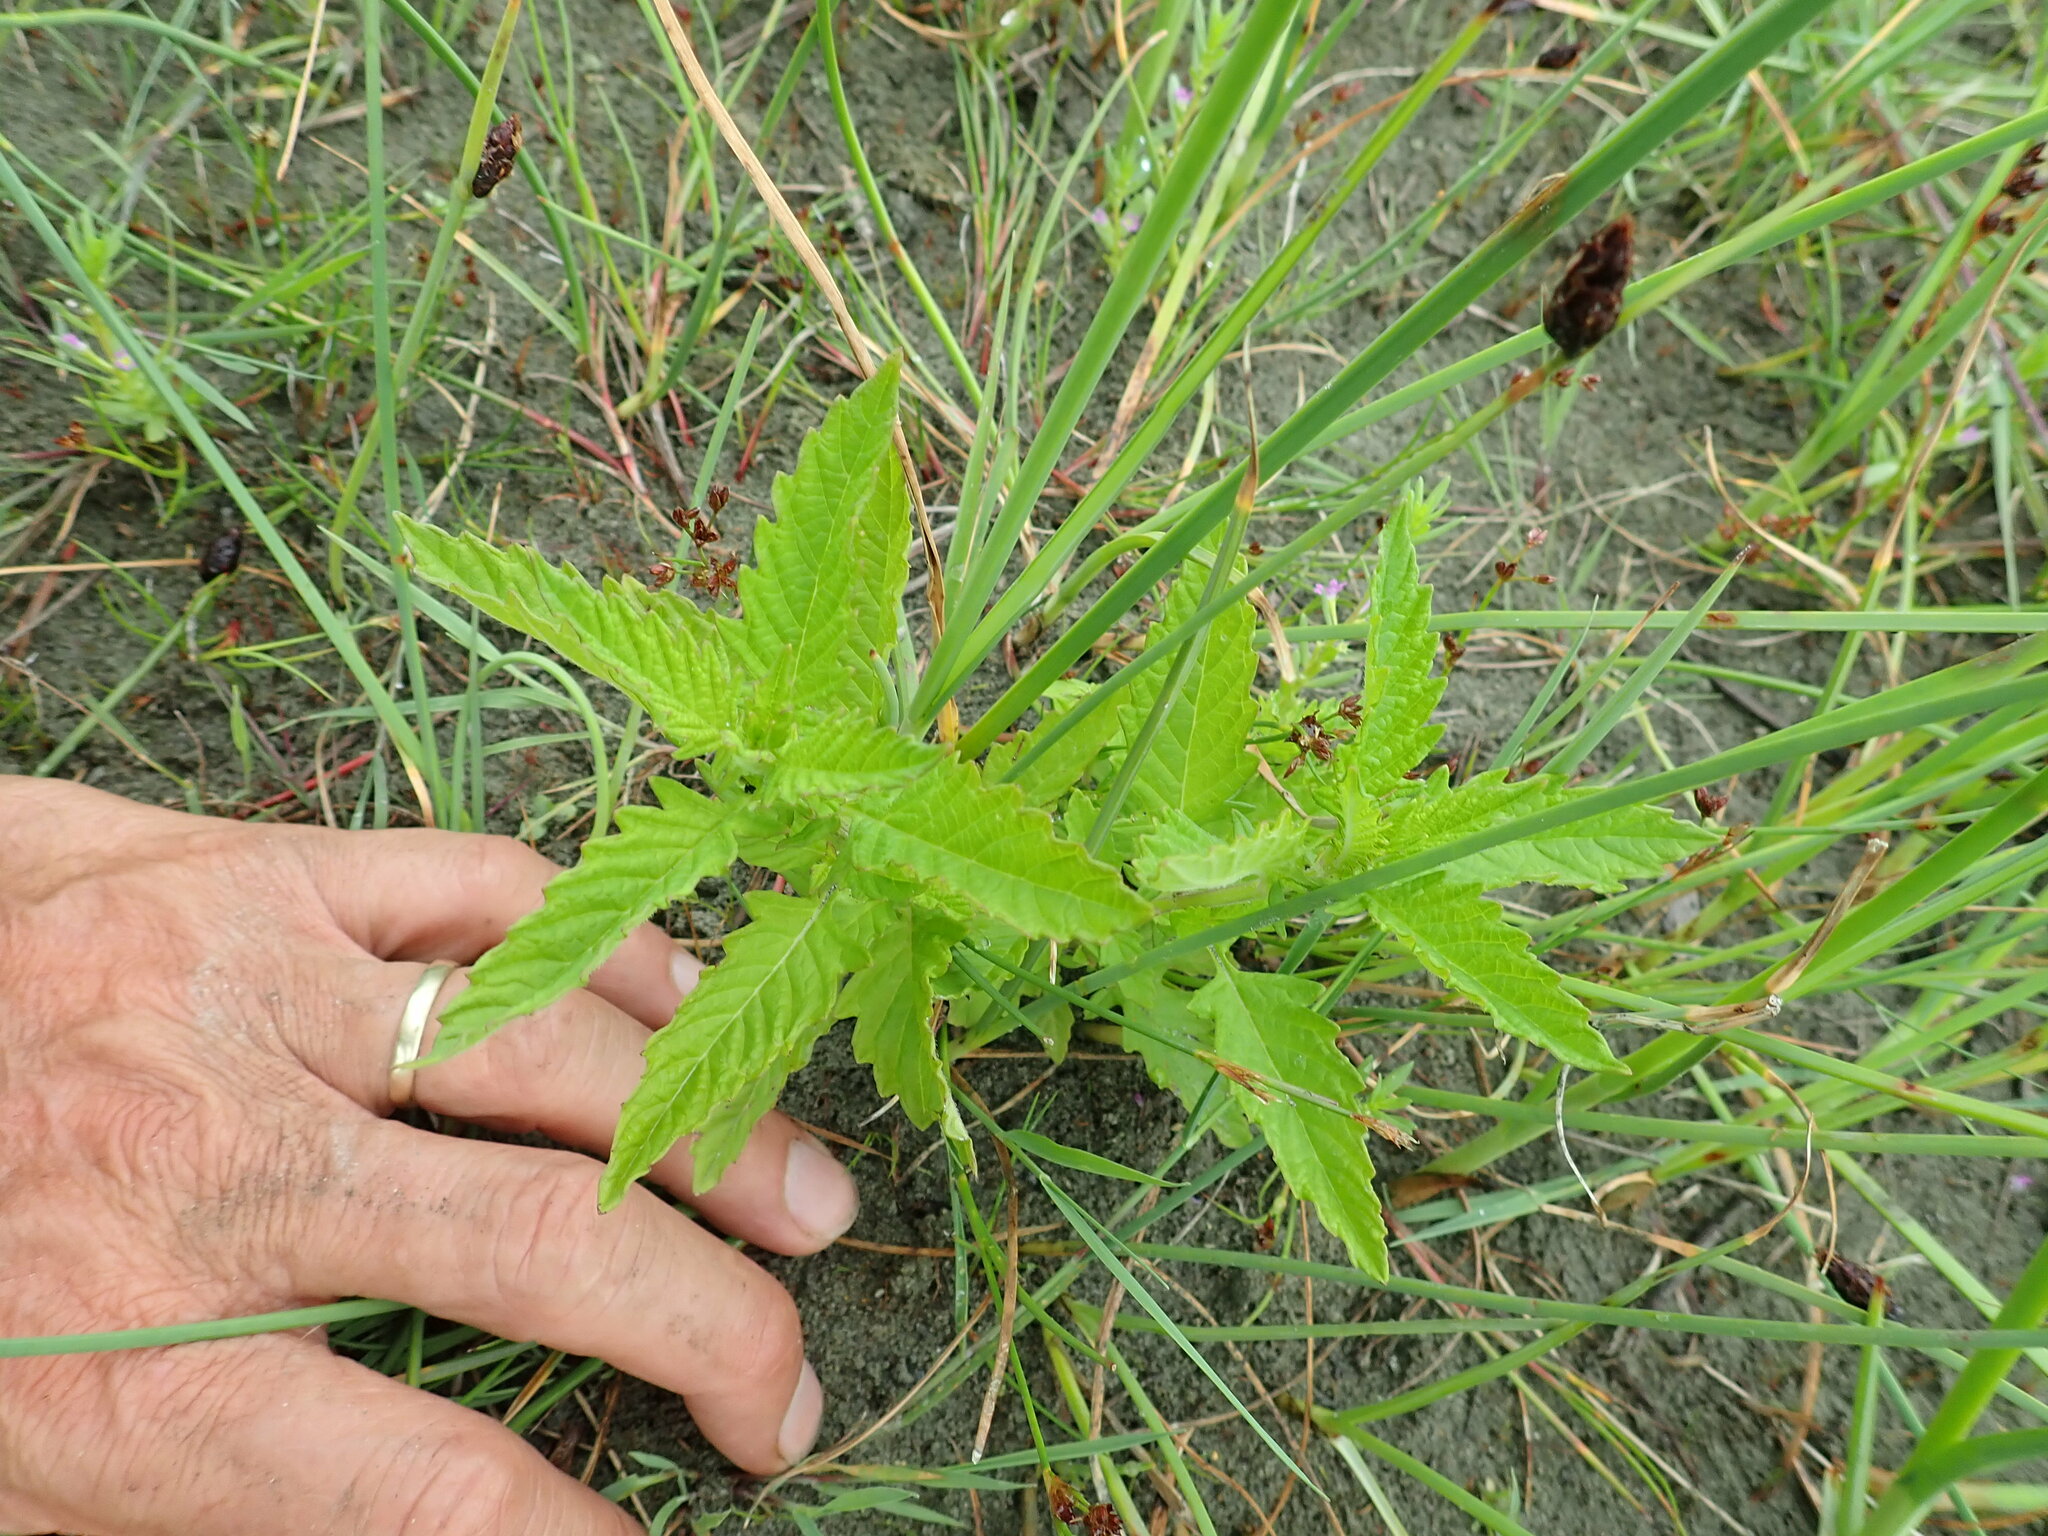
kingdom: Plantae
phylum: Tracheophyta
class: Magnoliopsida
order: Lamiales
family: Lamiaceae
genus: Lycopus
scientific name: Lycopus europaeus
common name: European bugleweed
